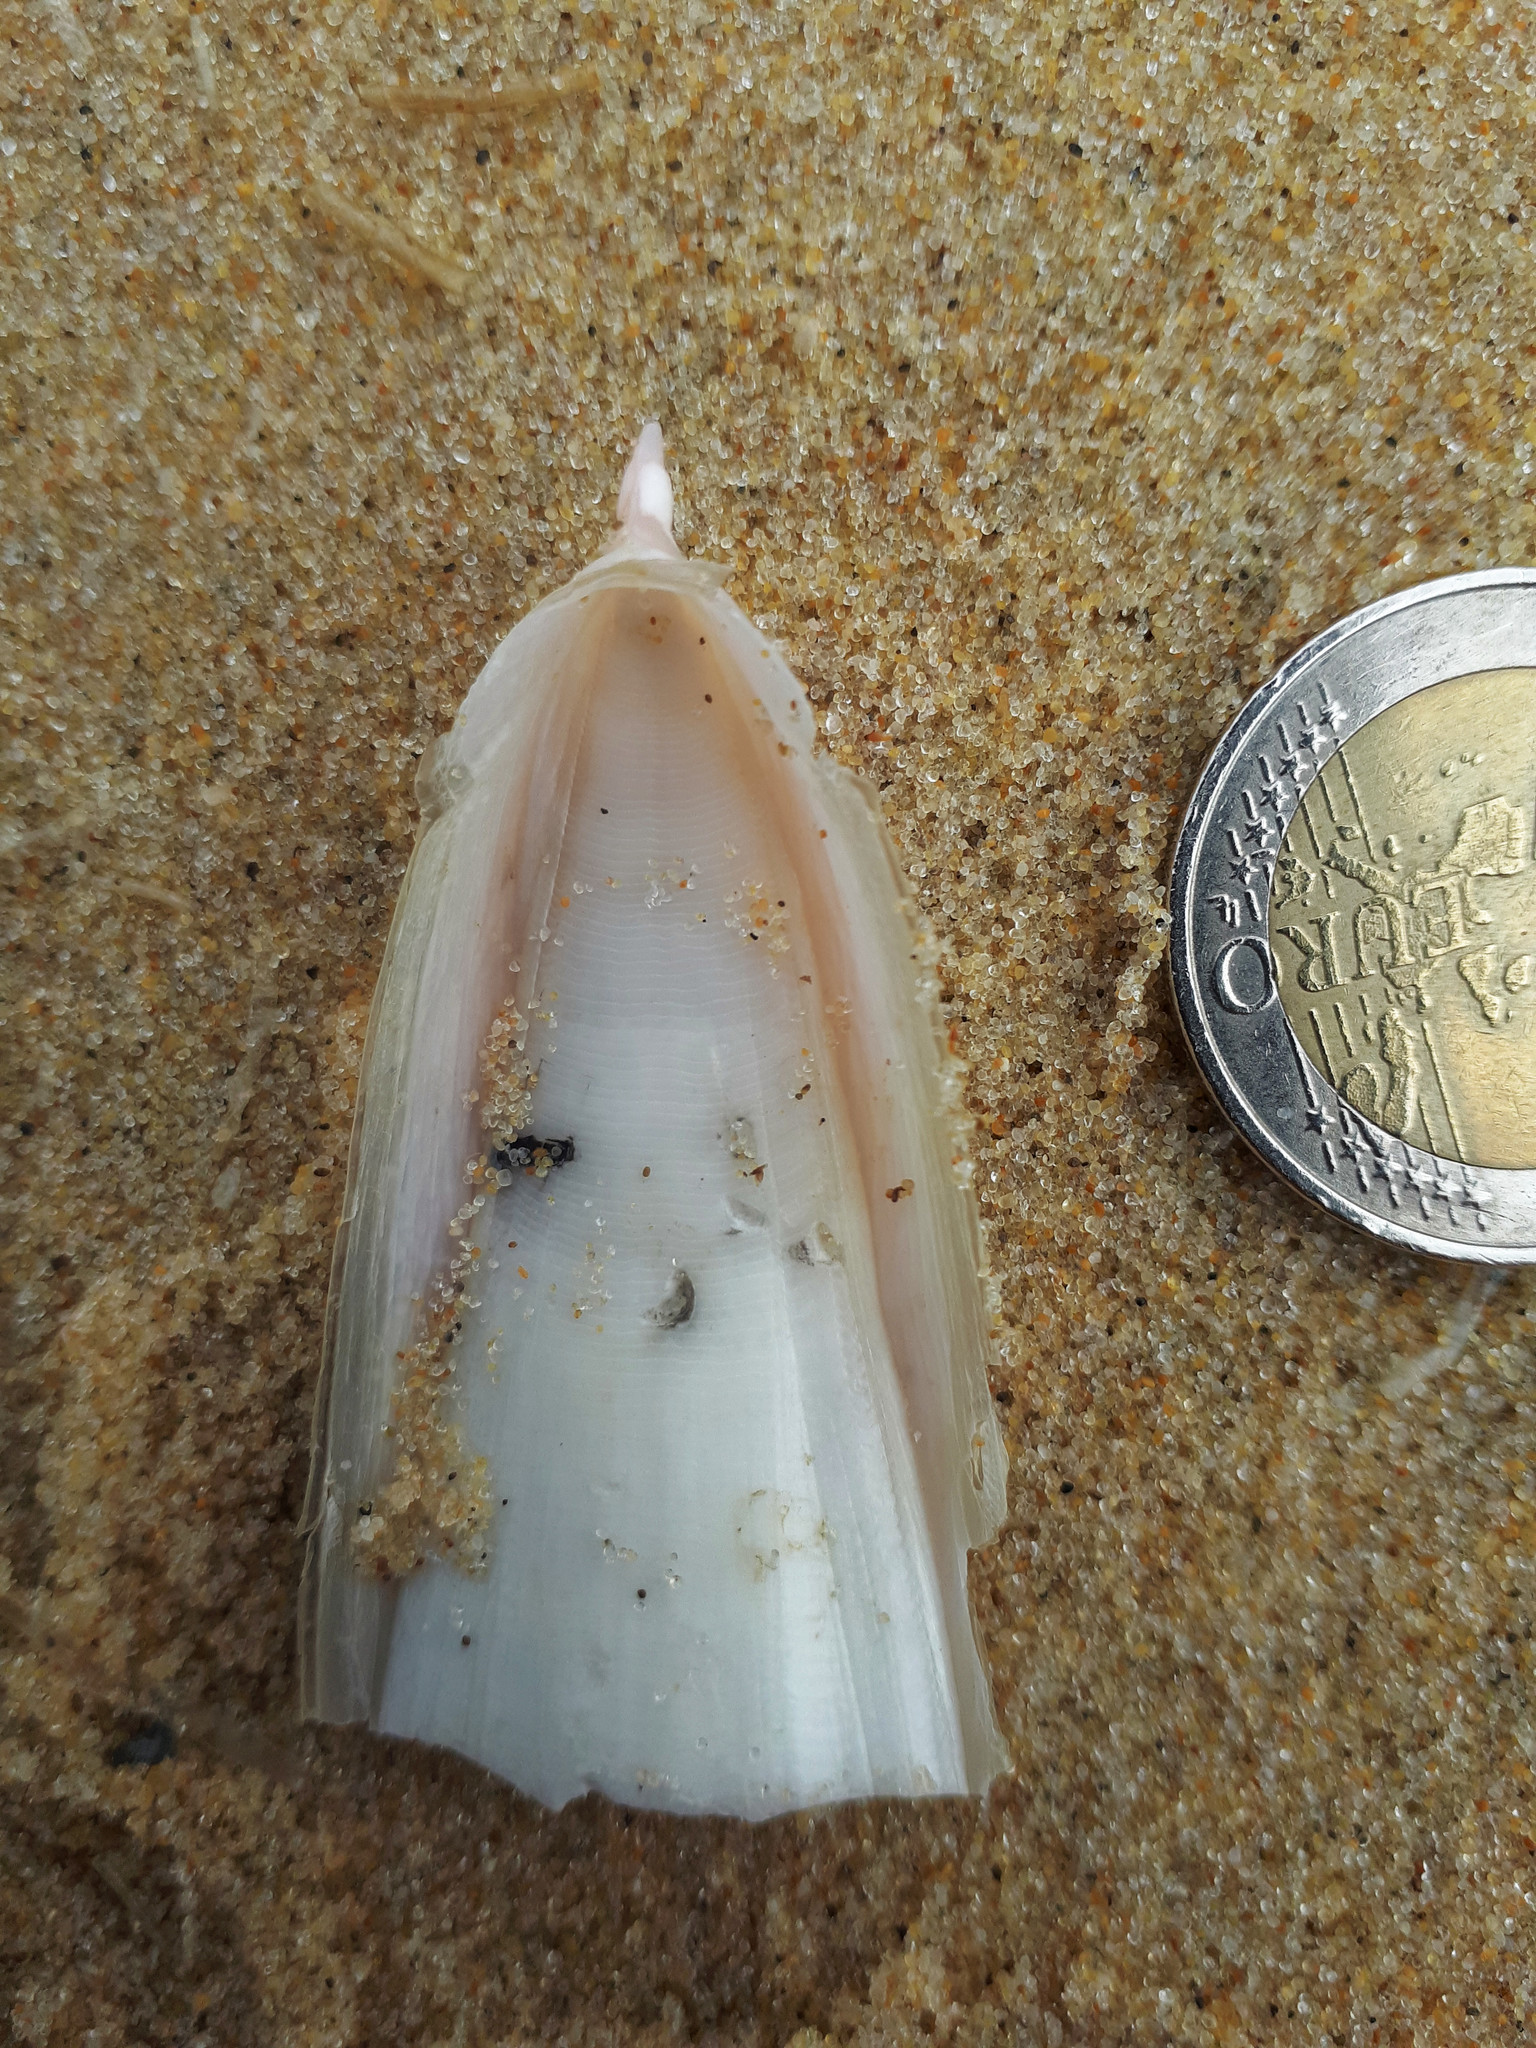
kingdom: Animalia
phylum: Mollusca
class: Cephalopoda
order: Sepiida
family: Sepiidae
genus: Rhombosepion
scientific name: Rhombosepion orbignyanum
